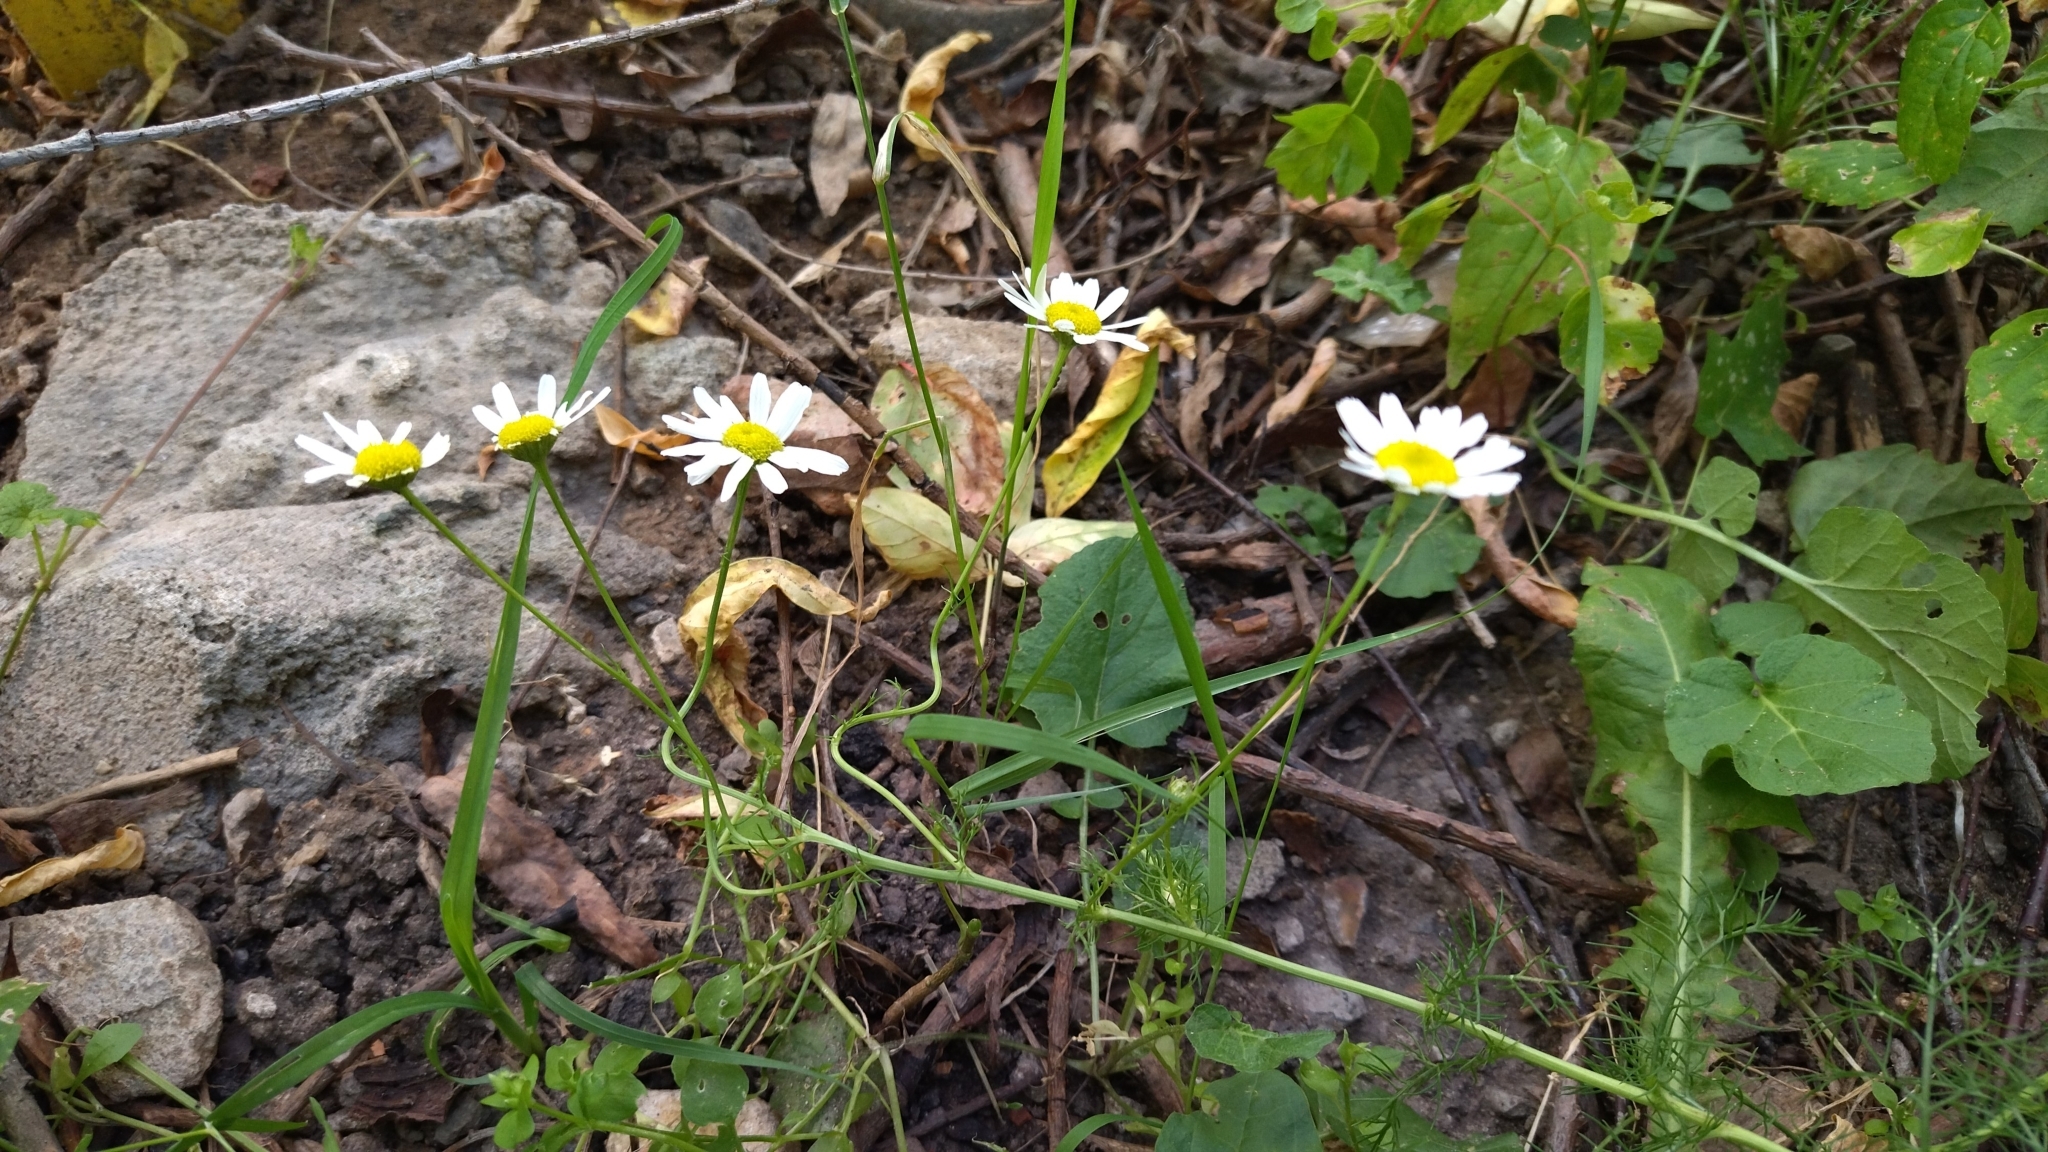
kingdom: Plantae
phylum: Tracheophyta
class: Magnoliopsida
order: Asterales
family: Asteraceae
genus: Tripleurospermum
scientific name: Tripleurospermum inodorum
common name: Scentless mayweed
